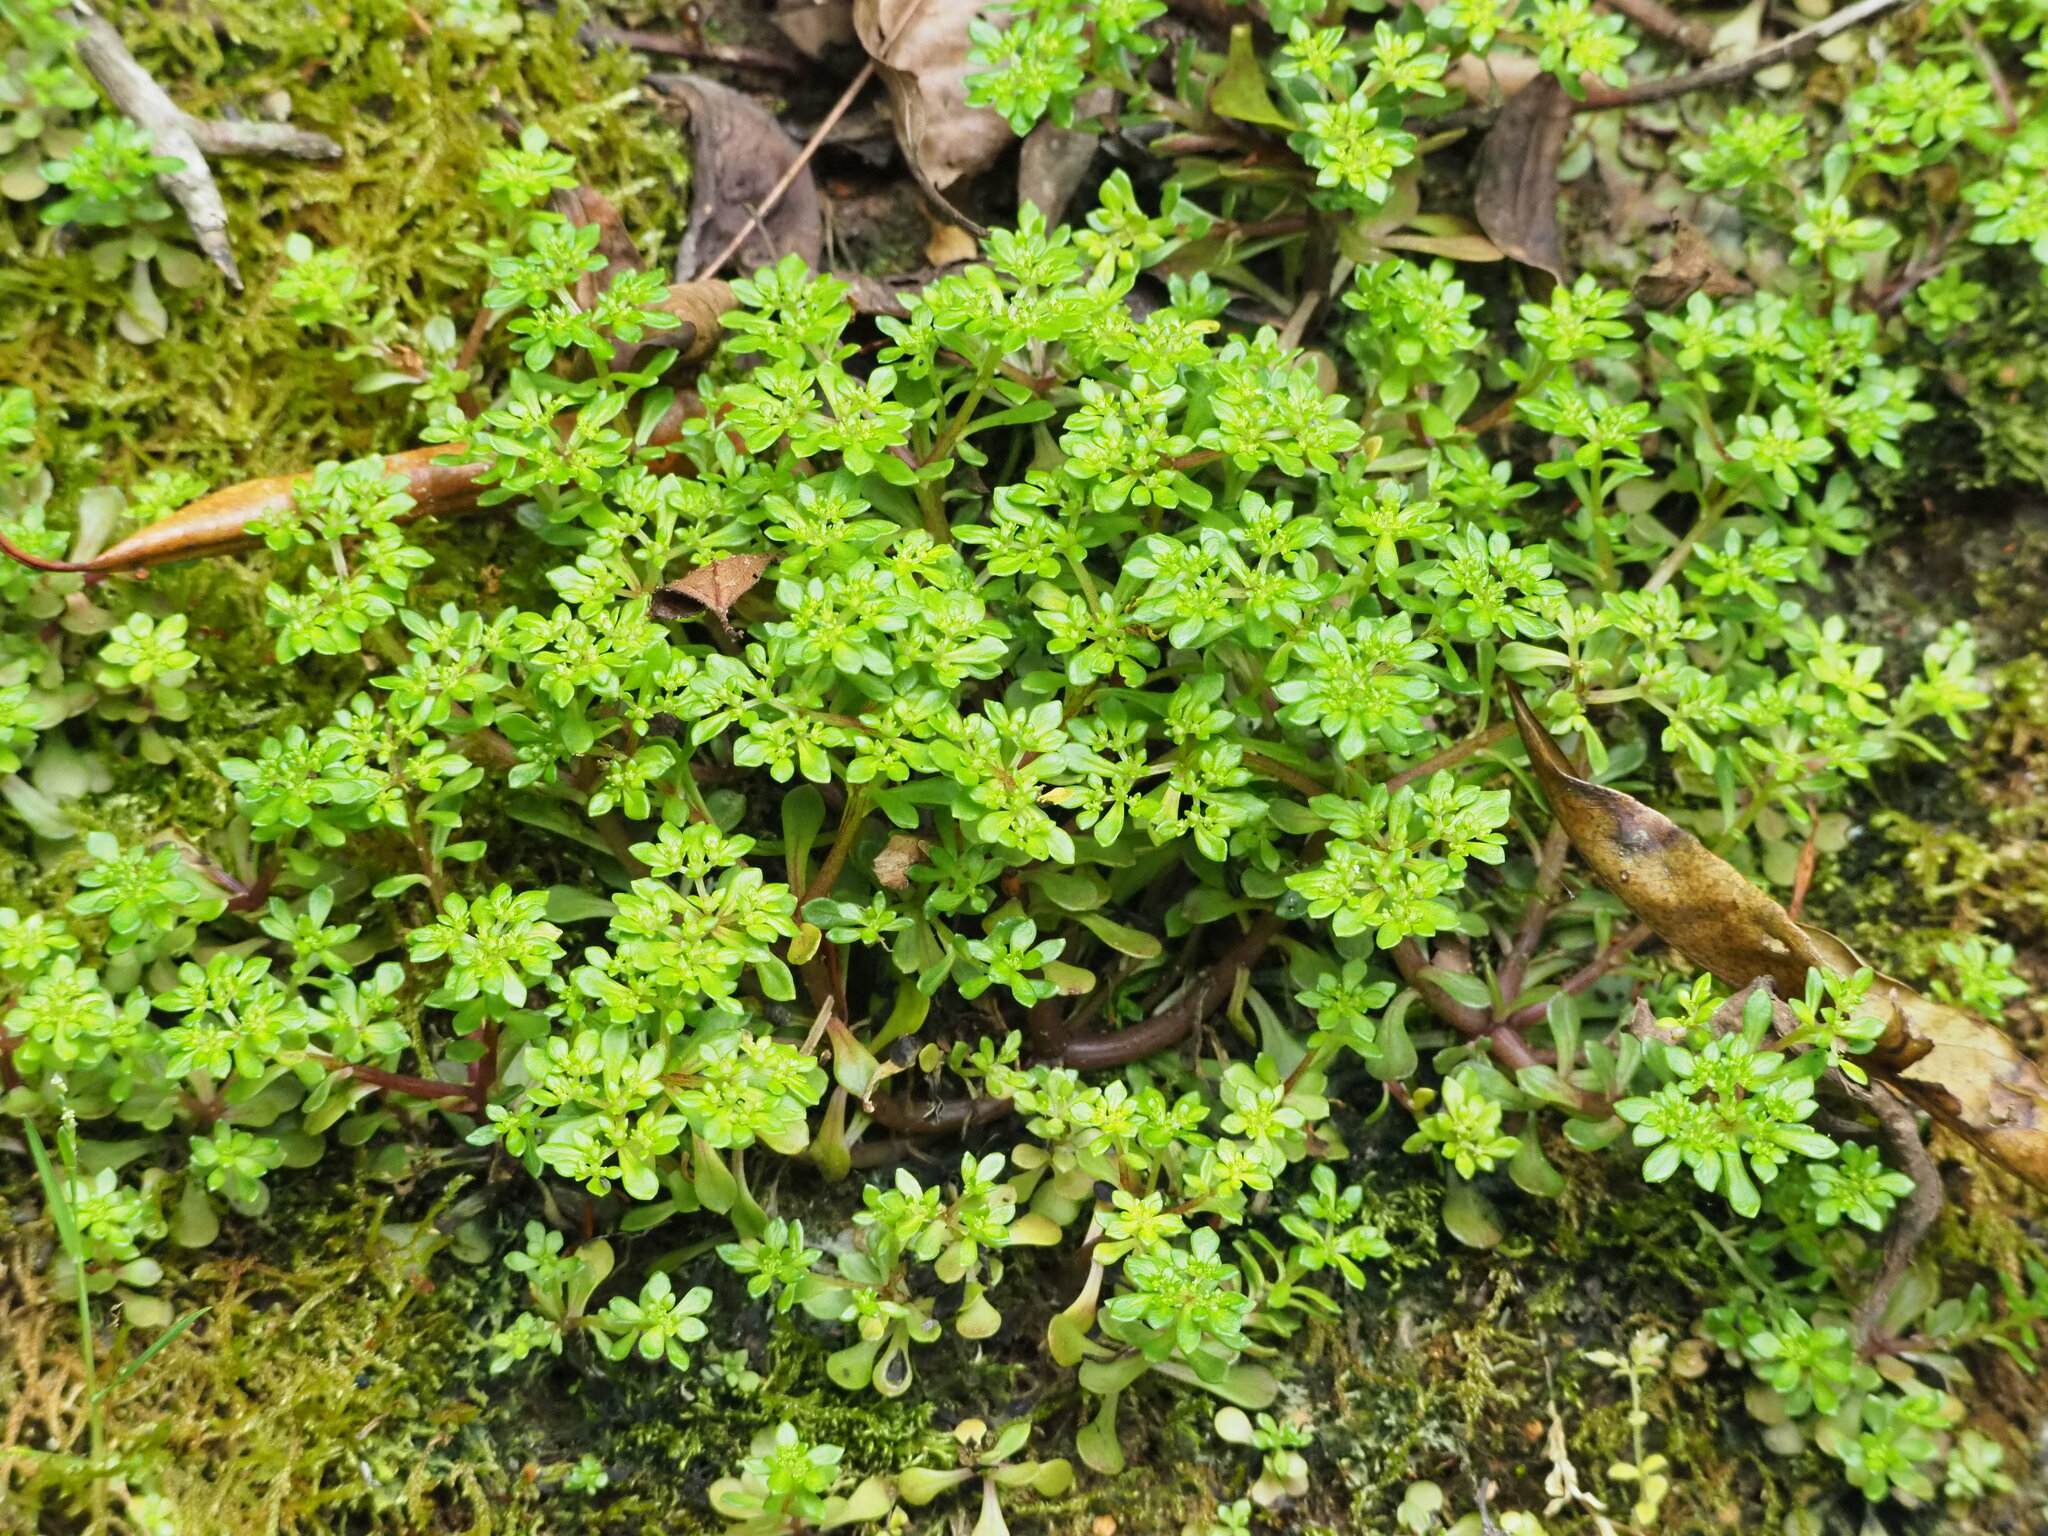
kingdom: Plantae
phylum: Tracheophyta
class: Magnoliopsida
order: Saxifragales
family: Crassulaceae
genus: Sedum
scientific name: Sedum actinocarpum
